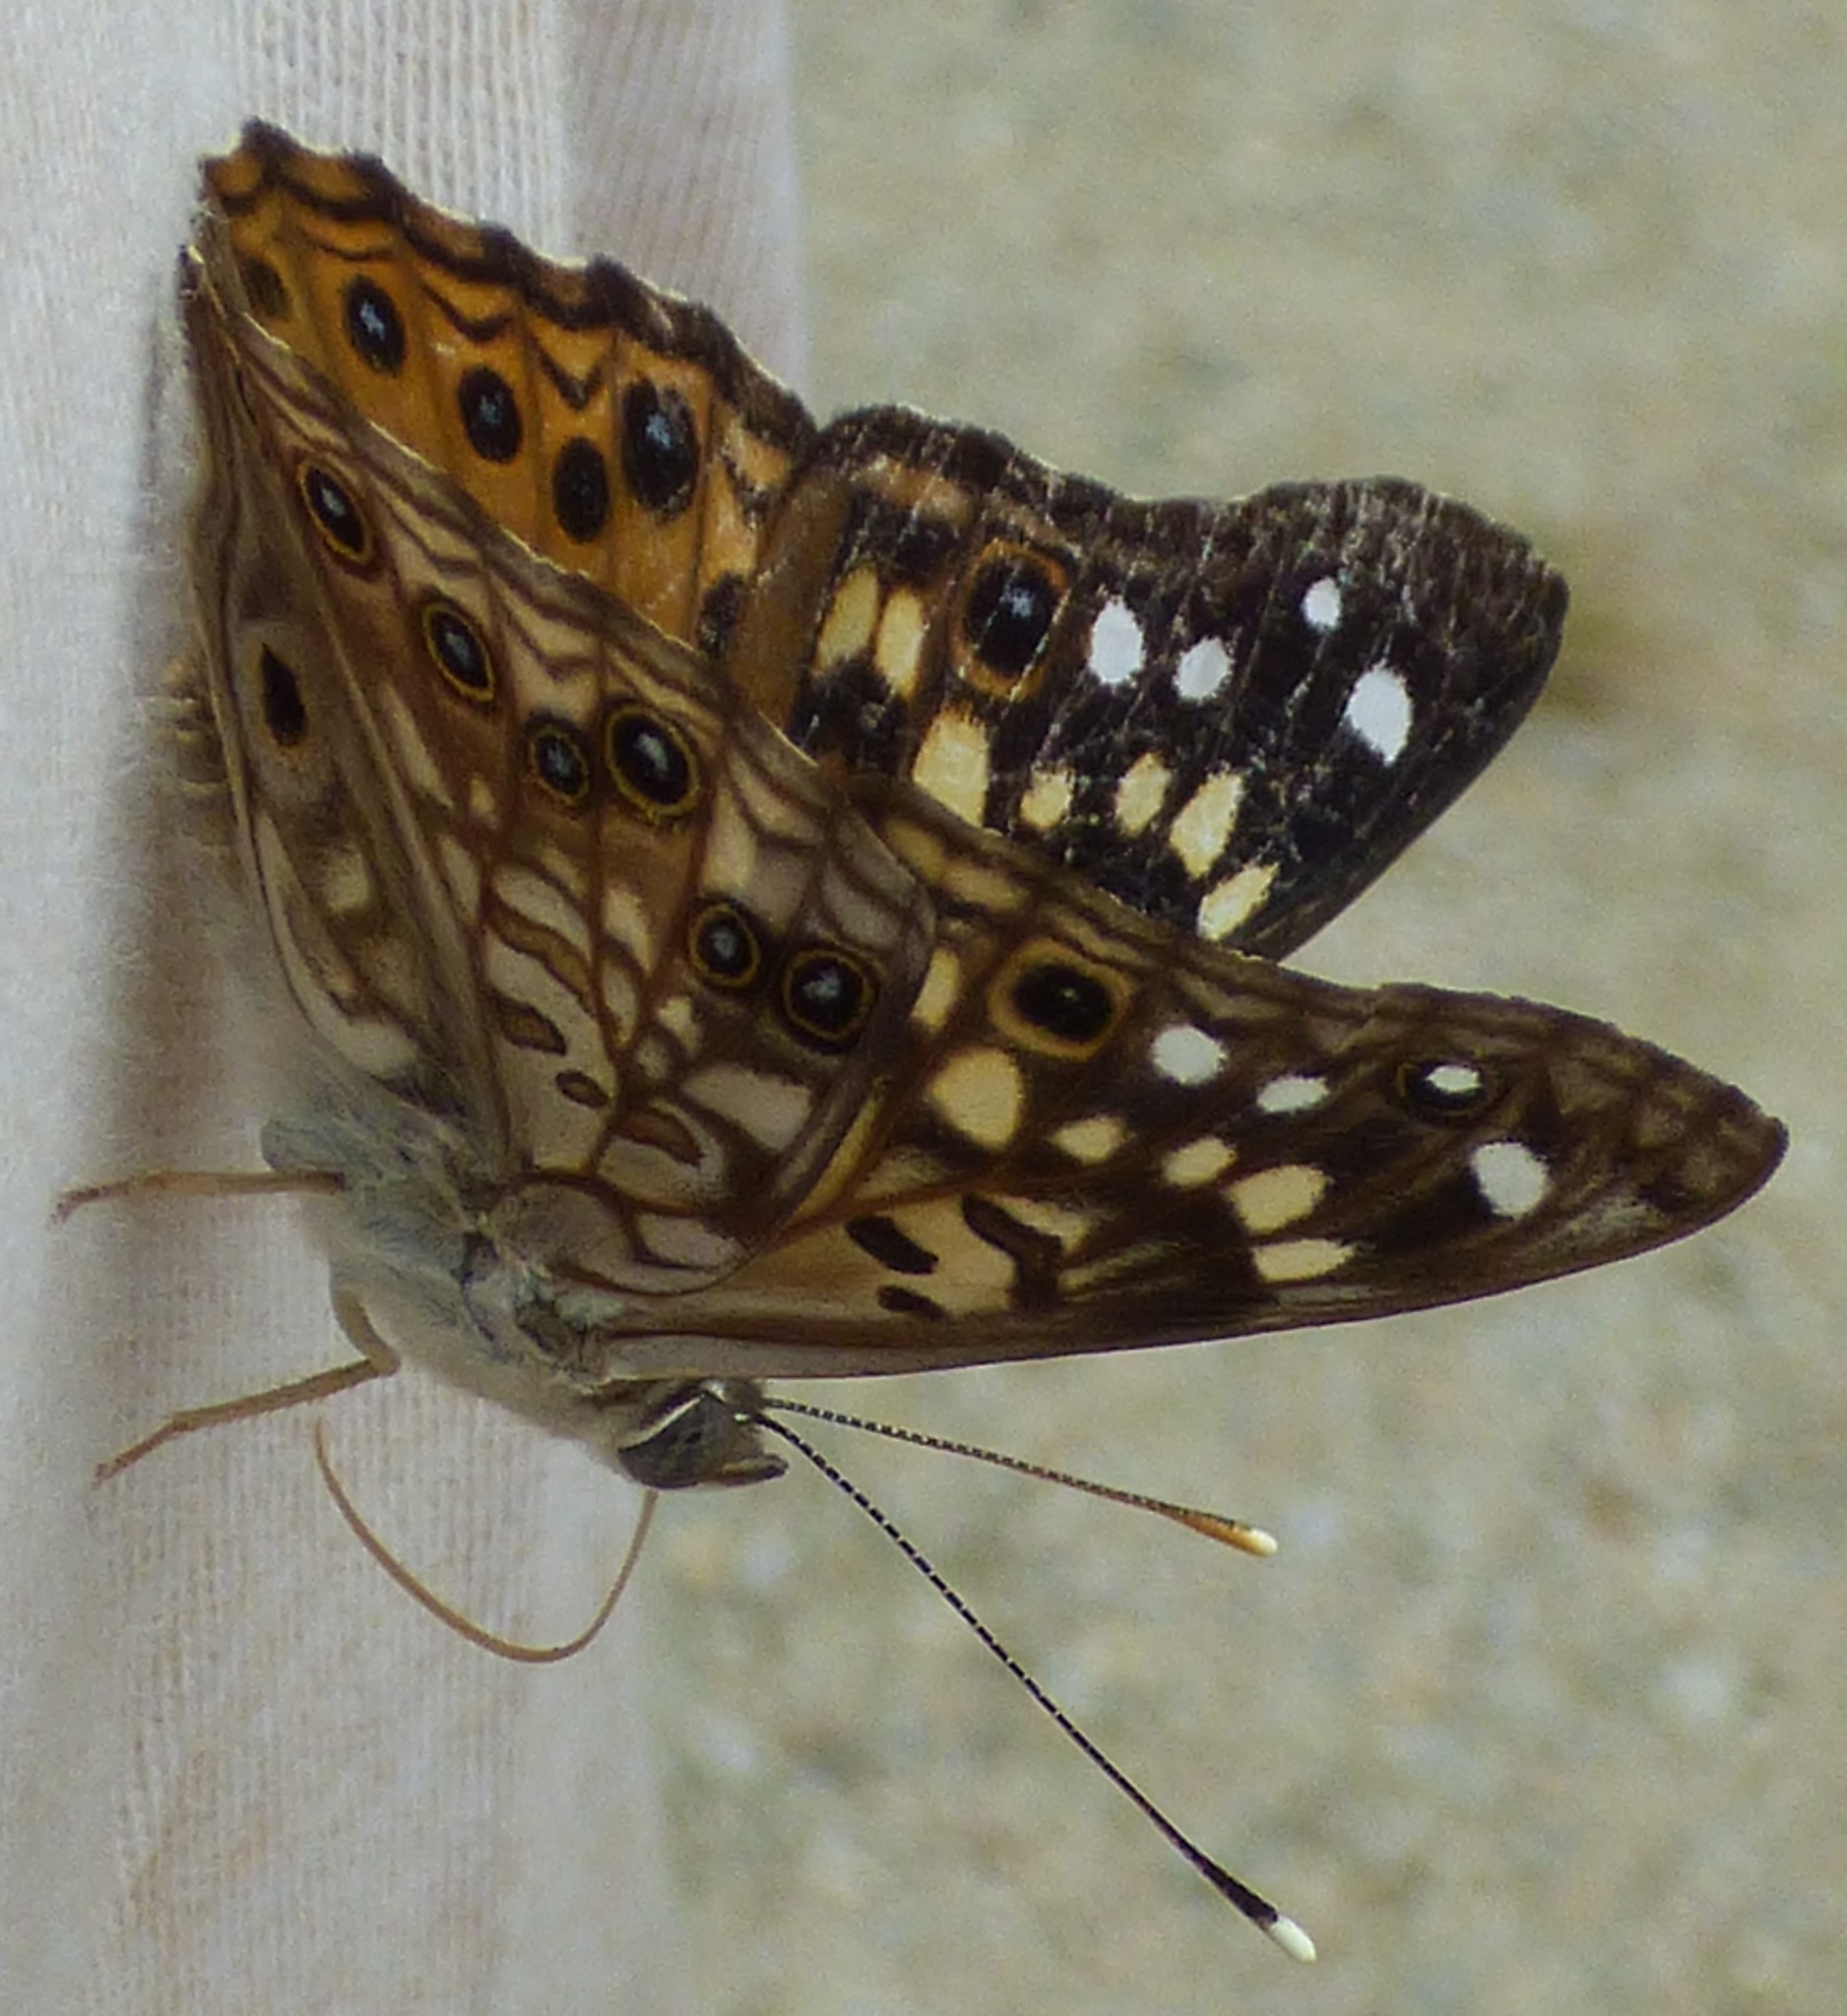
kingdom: Animalia
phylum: Arthropoda
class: Insecta
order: Lepidoptera
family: Nymphalidae
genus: Asterocampa
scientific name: Asterocampa celtis
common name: Hackberry emperor
